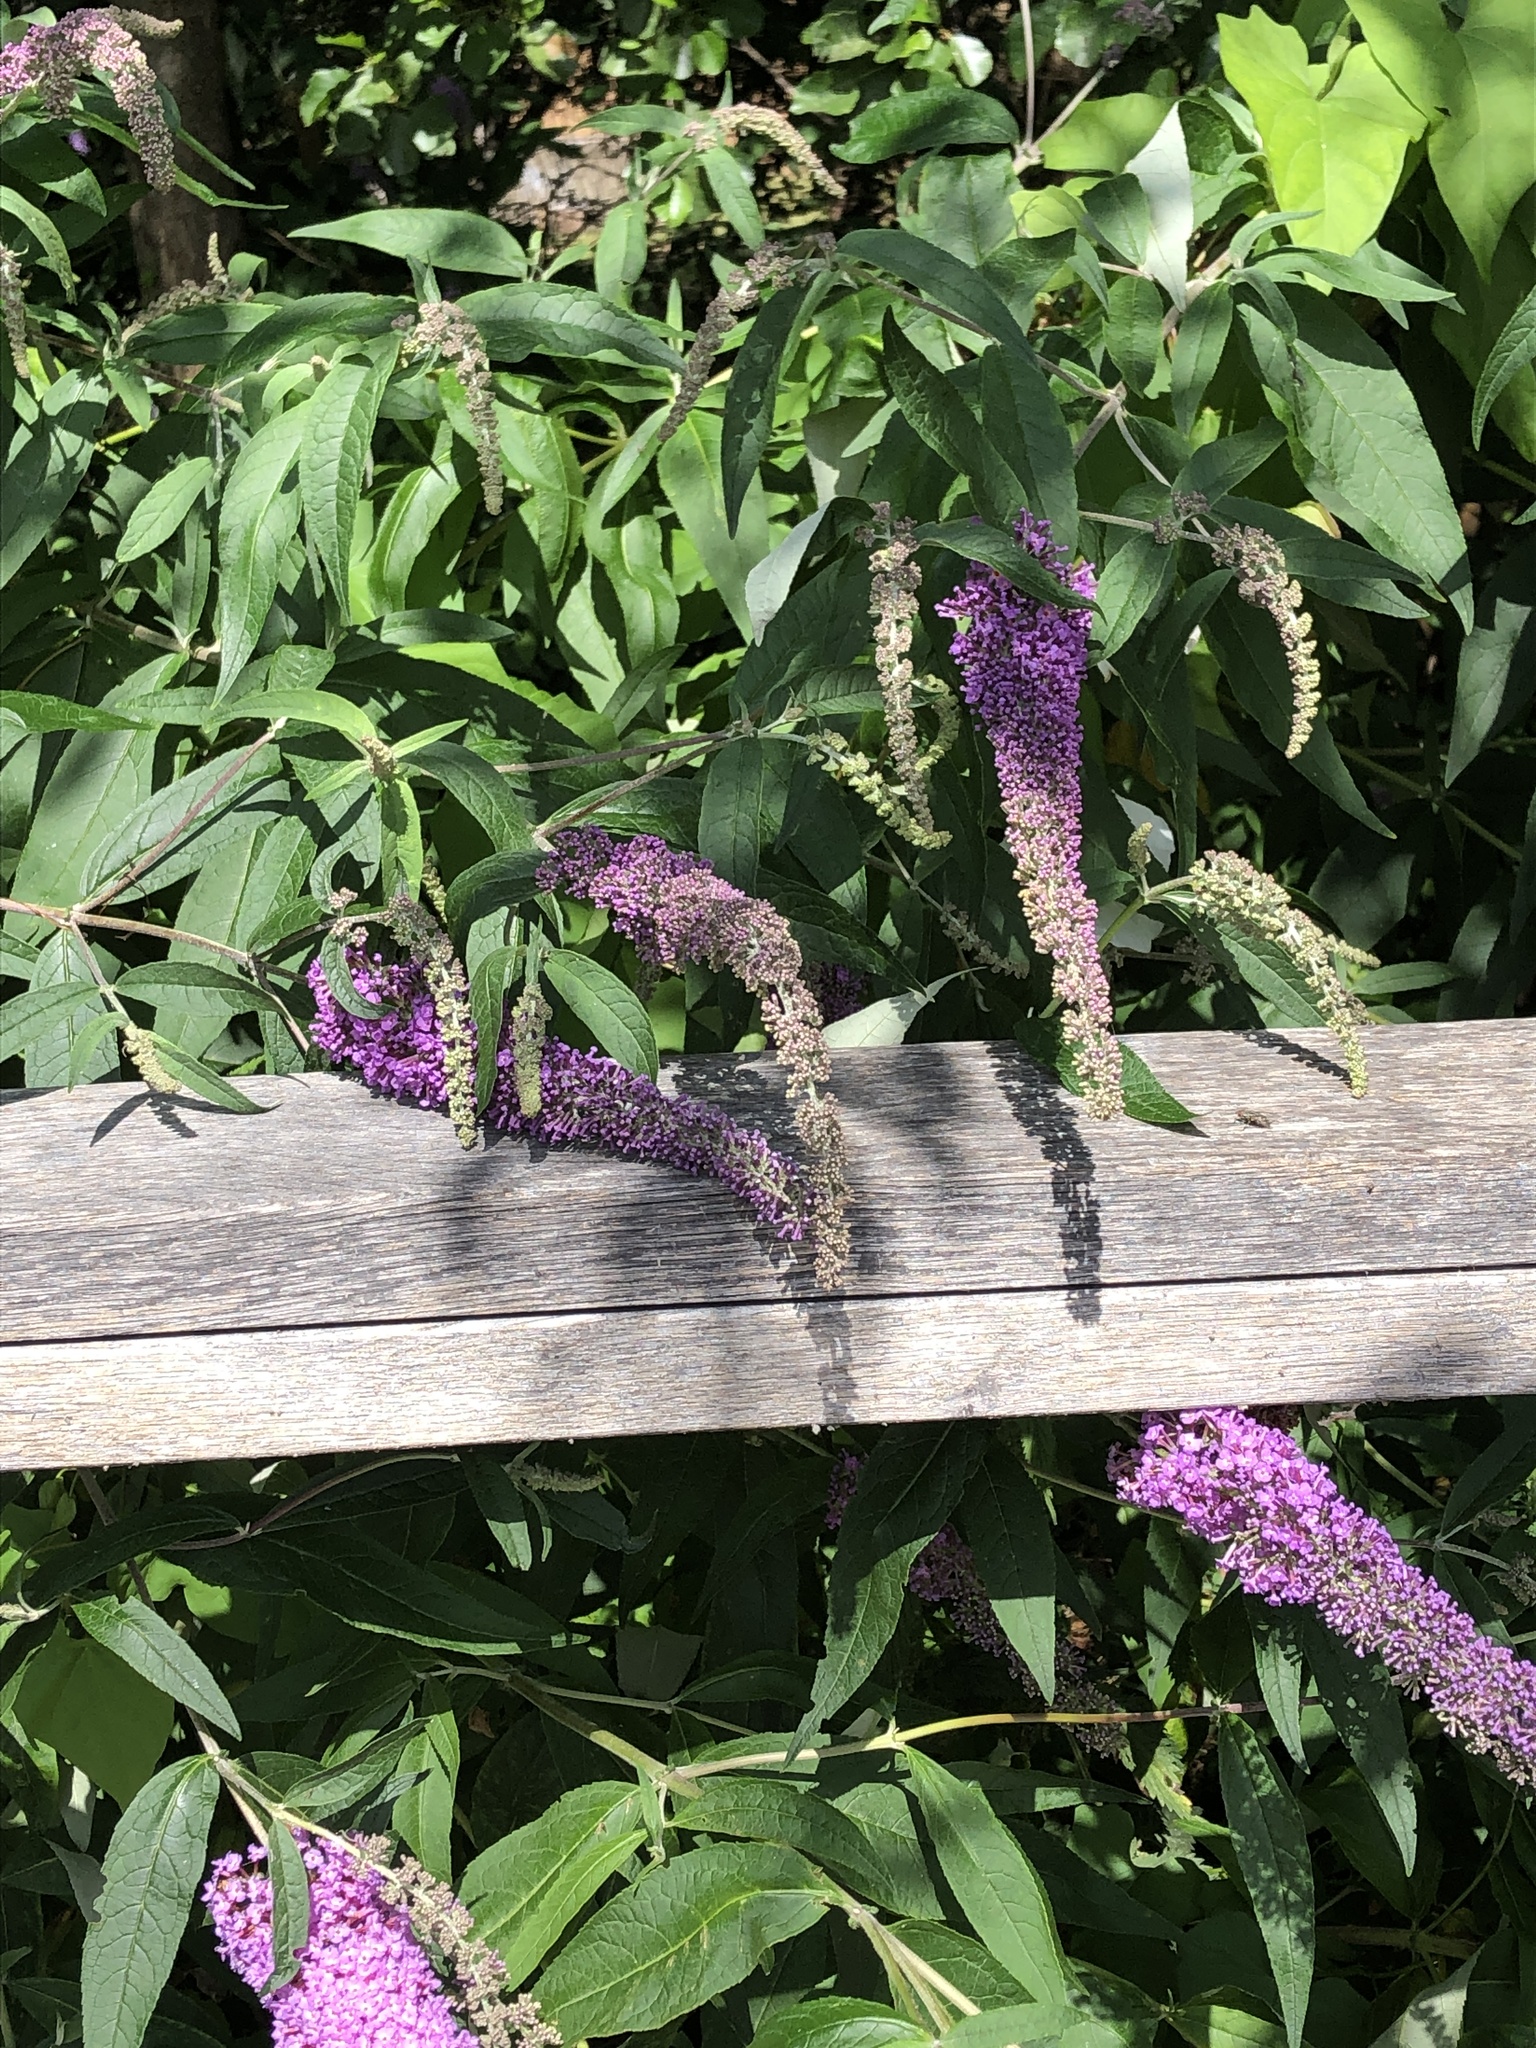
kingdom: Plantae
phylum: Tracheophyta
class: Magnoliopsida
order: Lamiales
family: Scrophulariaceae
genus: Buddleja
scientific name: Buddleja davidii
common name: Butterfly-bush
